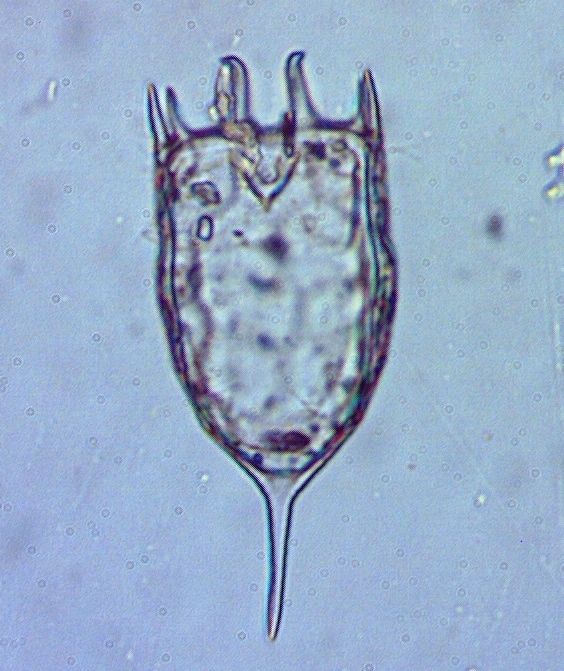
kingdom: Animalia
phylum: Rotifera
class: Eurotatoria
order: Ploima
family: Brachionidae
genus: Keratella
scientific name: Keratella crassa
